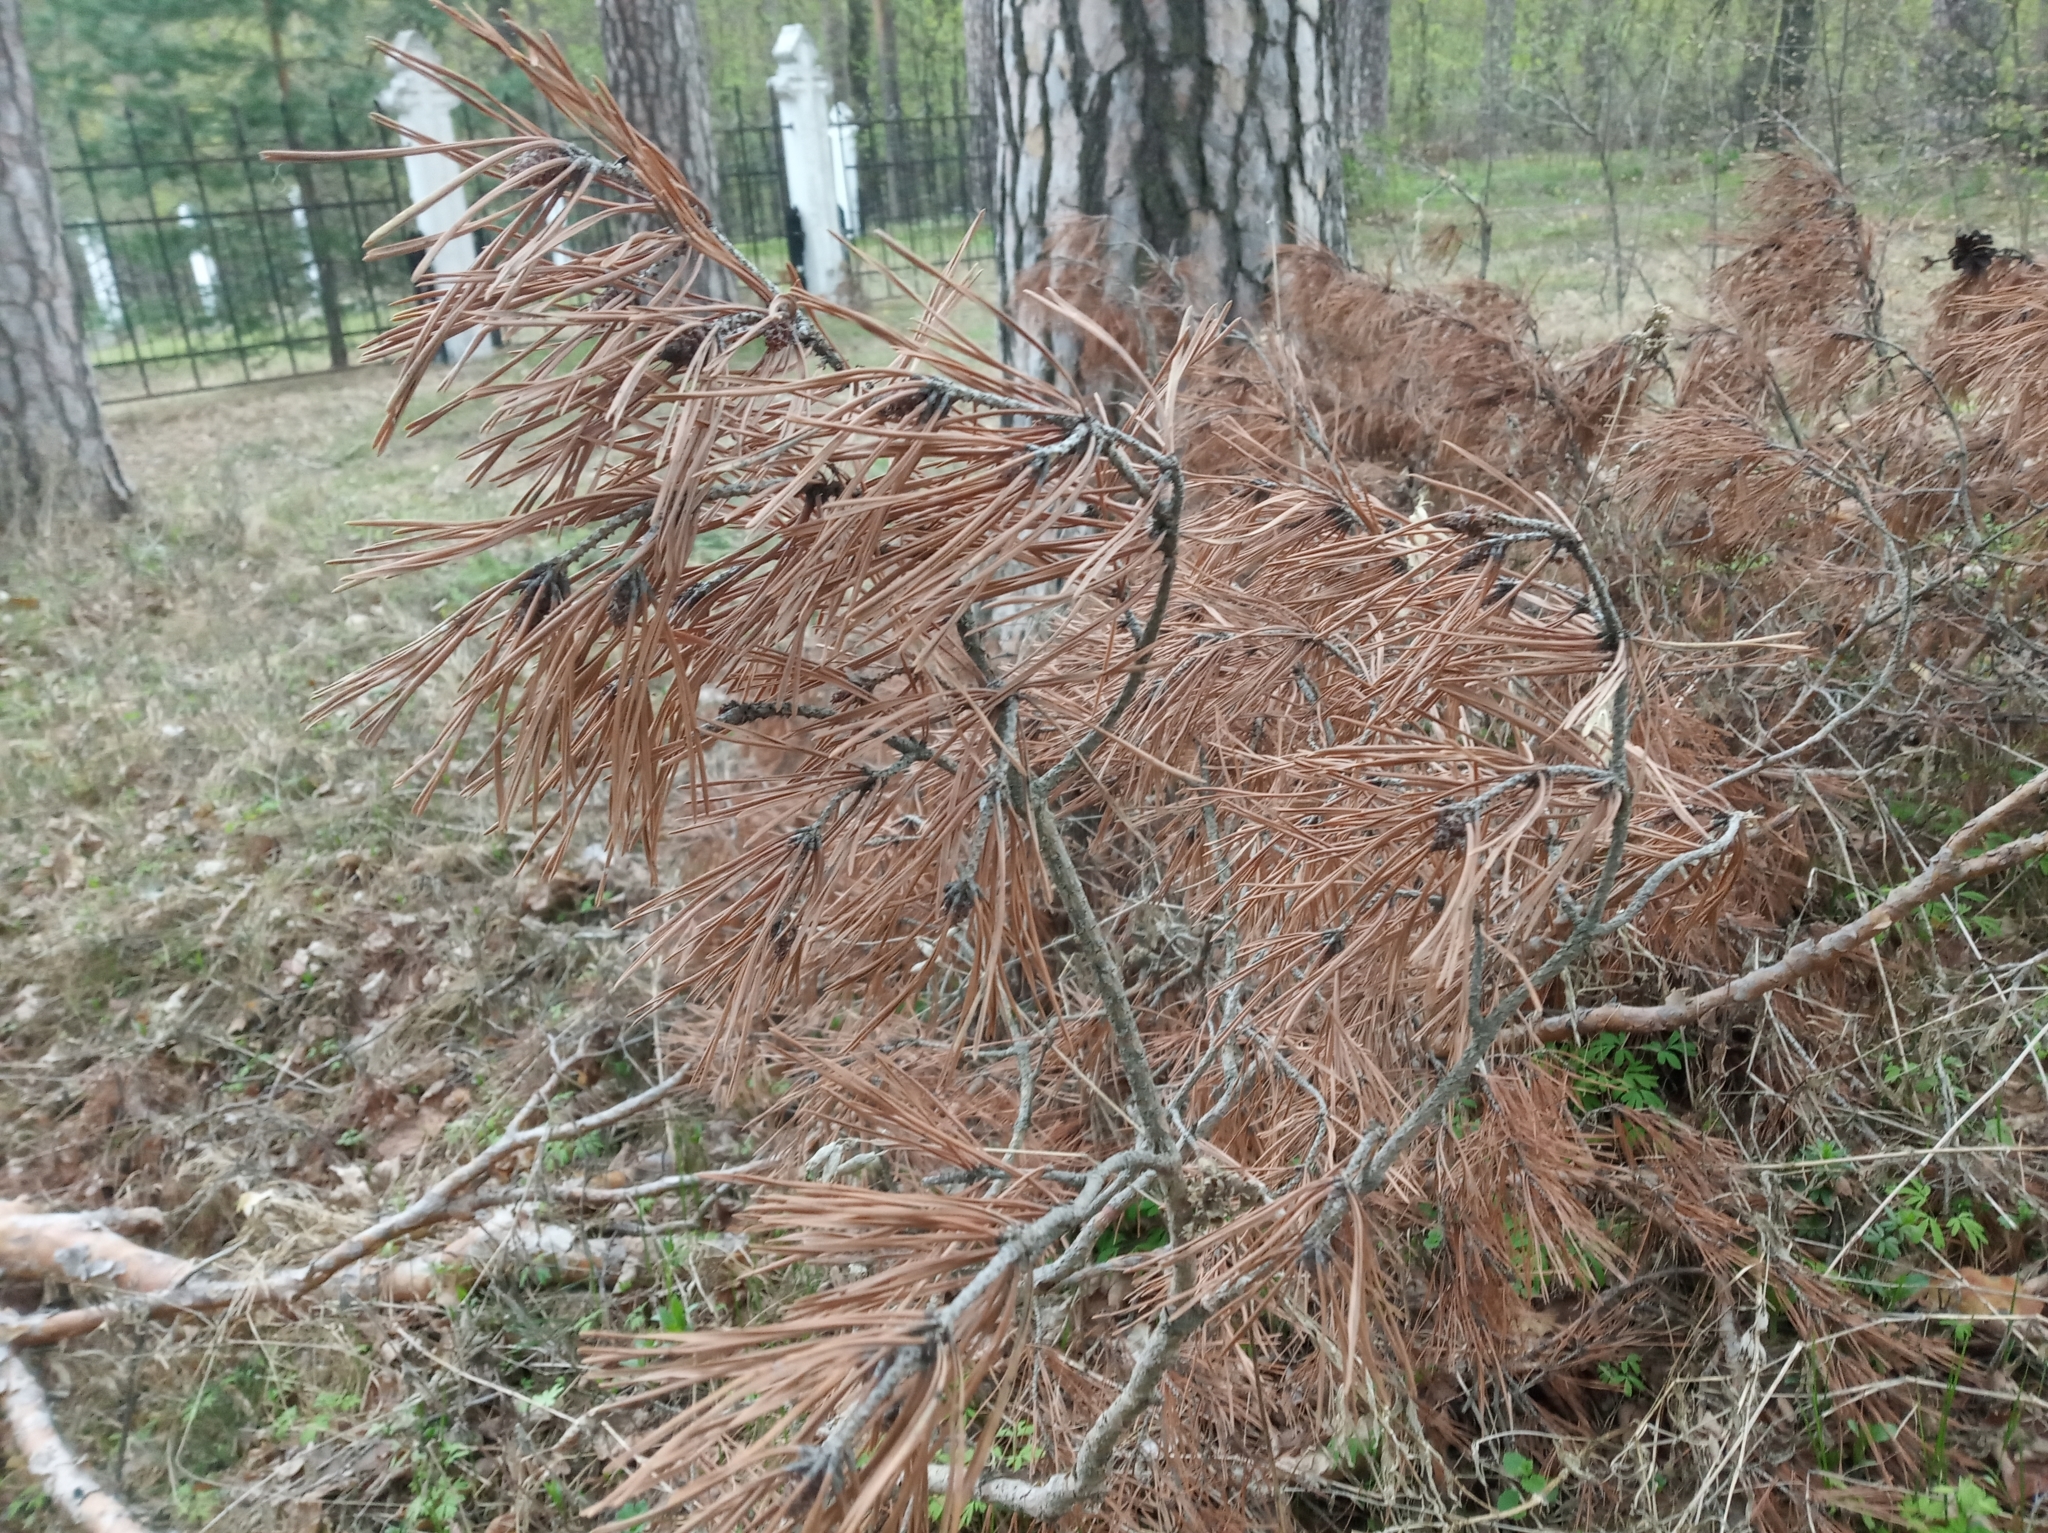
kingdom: Plantae
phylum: Tracheophyta
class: Pinopsida
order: Pinales
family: Pinaceae
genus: Pinus
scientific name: Pinus sylvestris
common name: Scots pine
